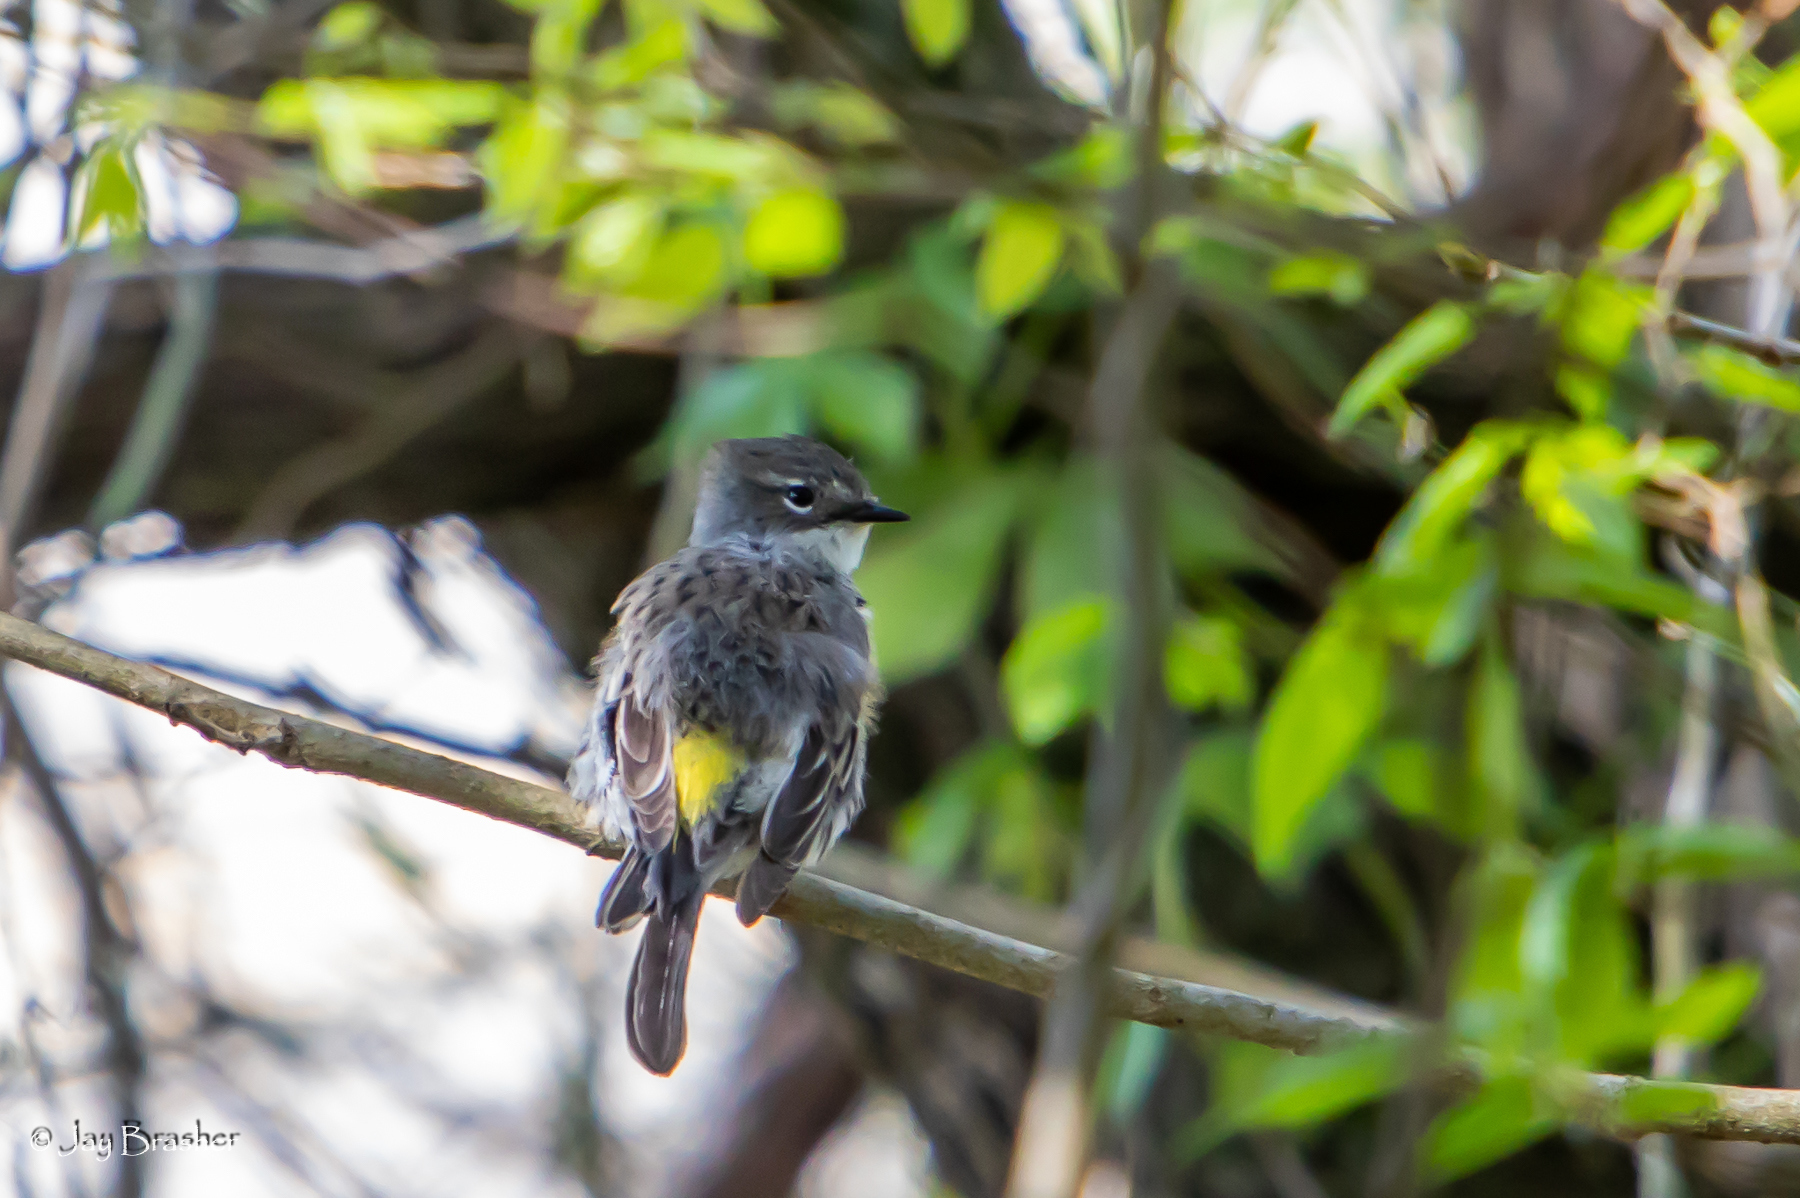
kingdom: Animalia
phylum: Chordata
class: Aves
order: Passeriformes
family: Parulidae
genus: Setophaga
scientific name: Setophaga coronata
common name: Myrtle warbler
